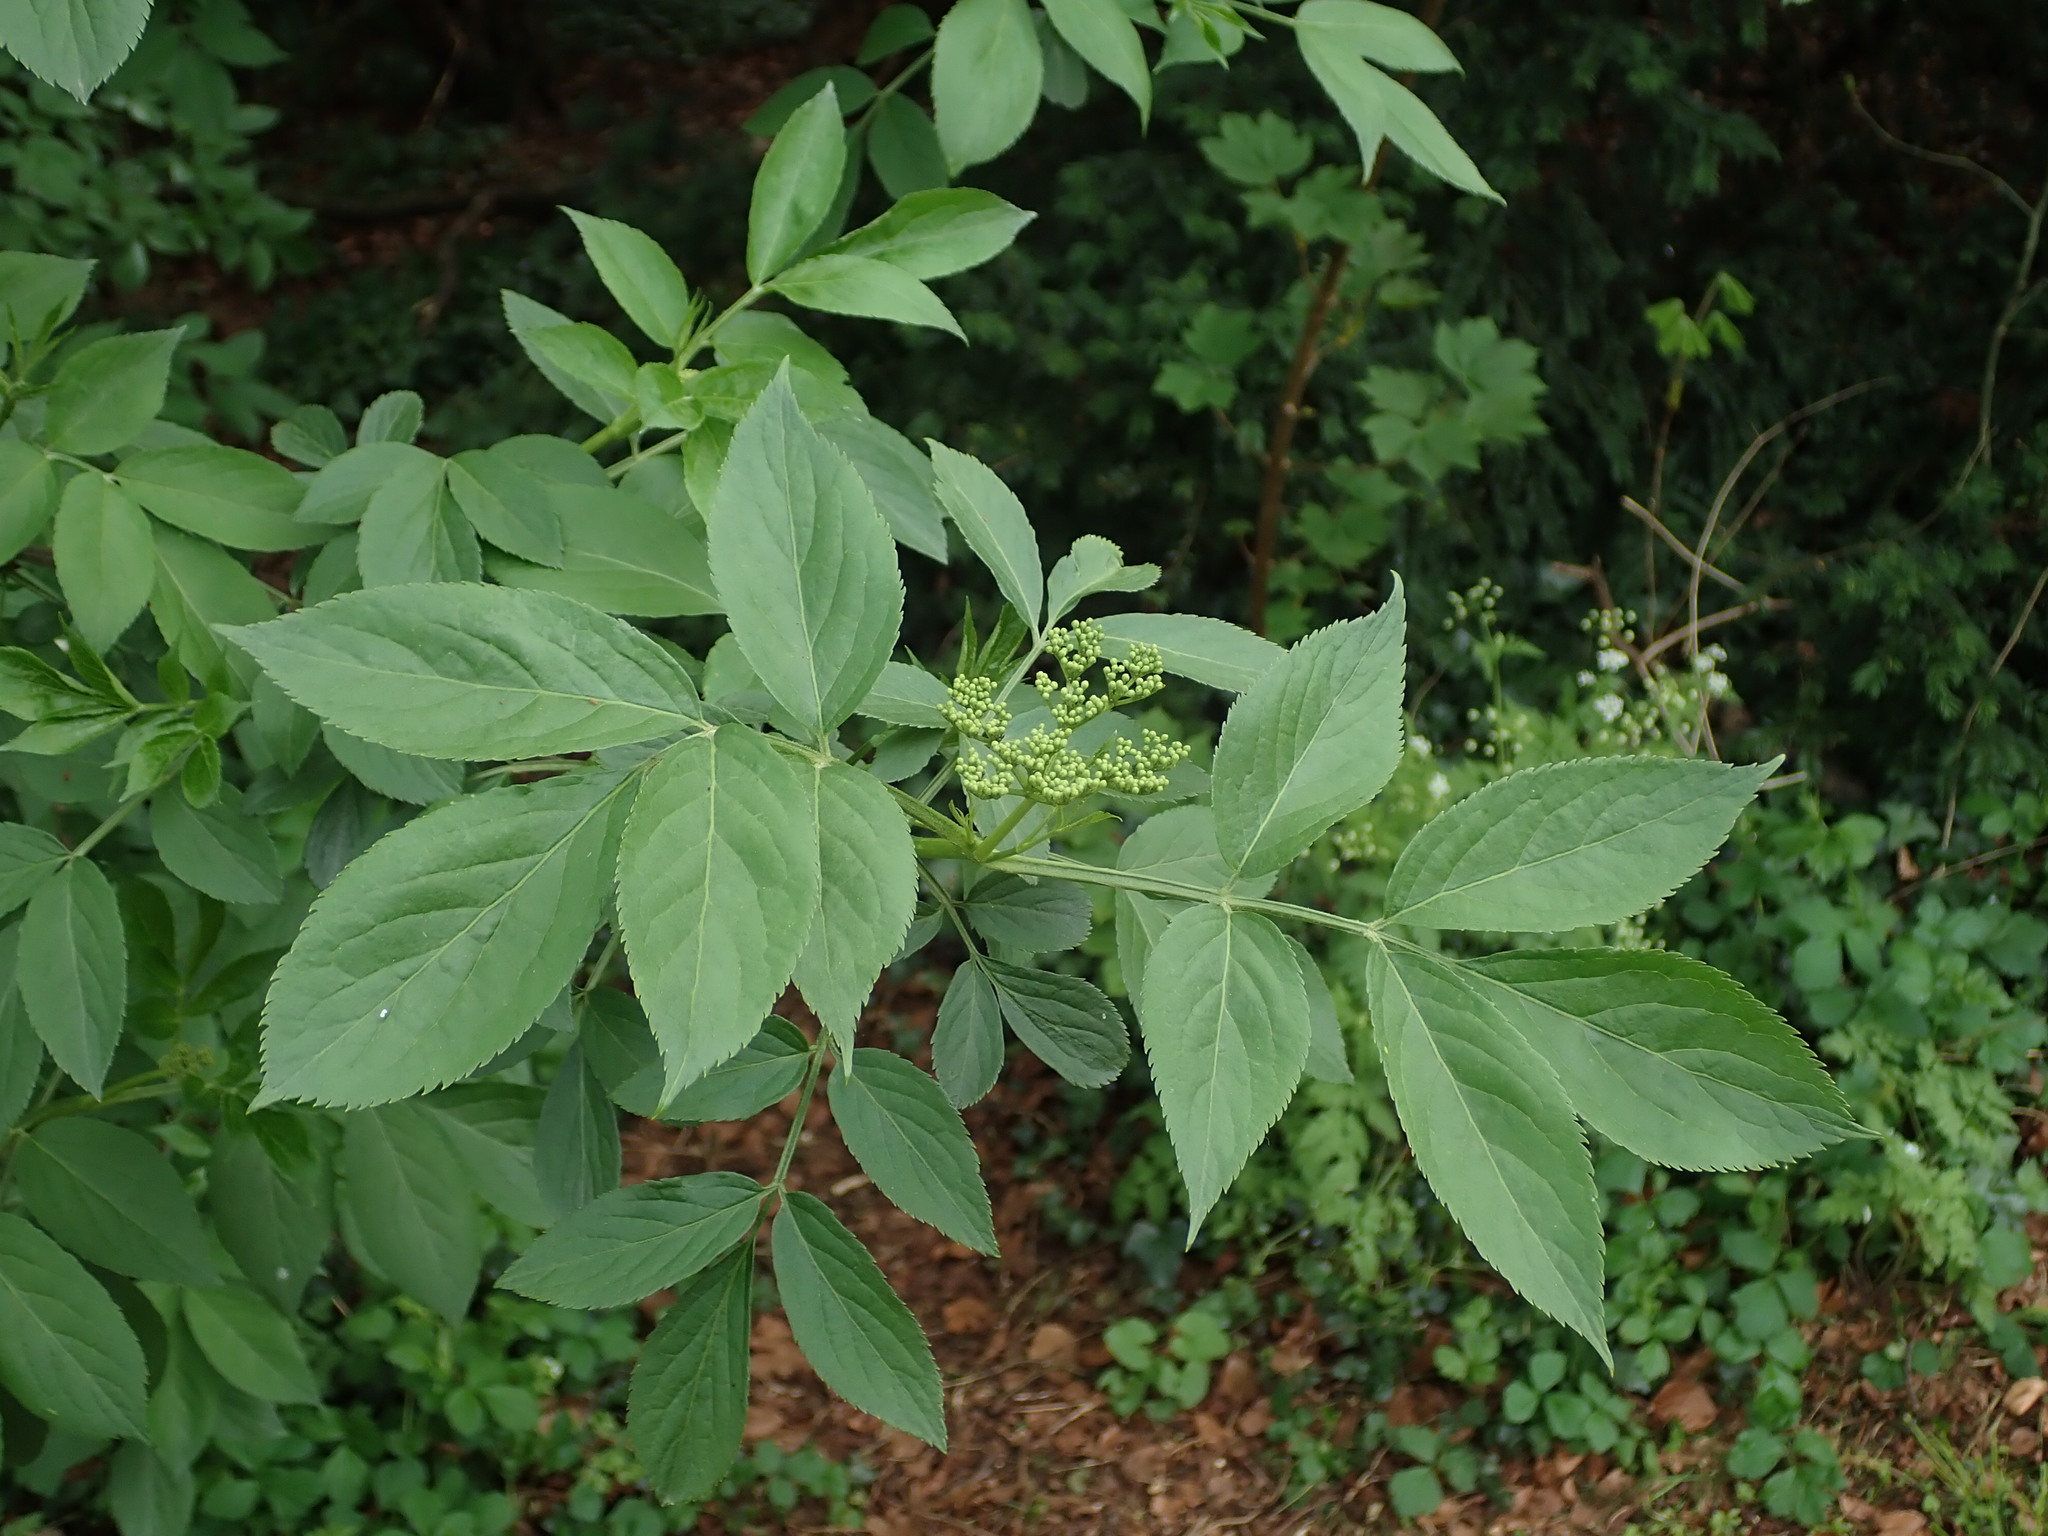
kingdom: Plantae
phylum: Tracheophyta
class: Magnoliopsida
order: Dipsacales
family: Viburnaceae
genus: Sambucus
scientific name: Sambucus nigra
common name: Elder
